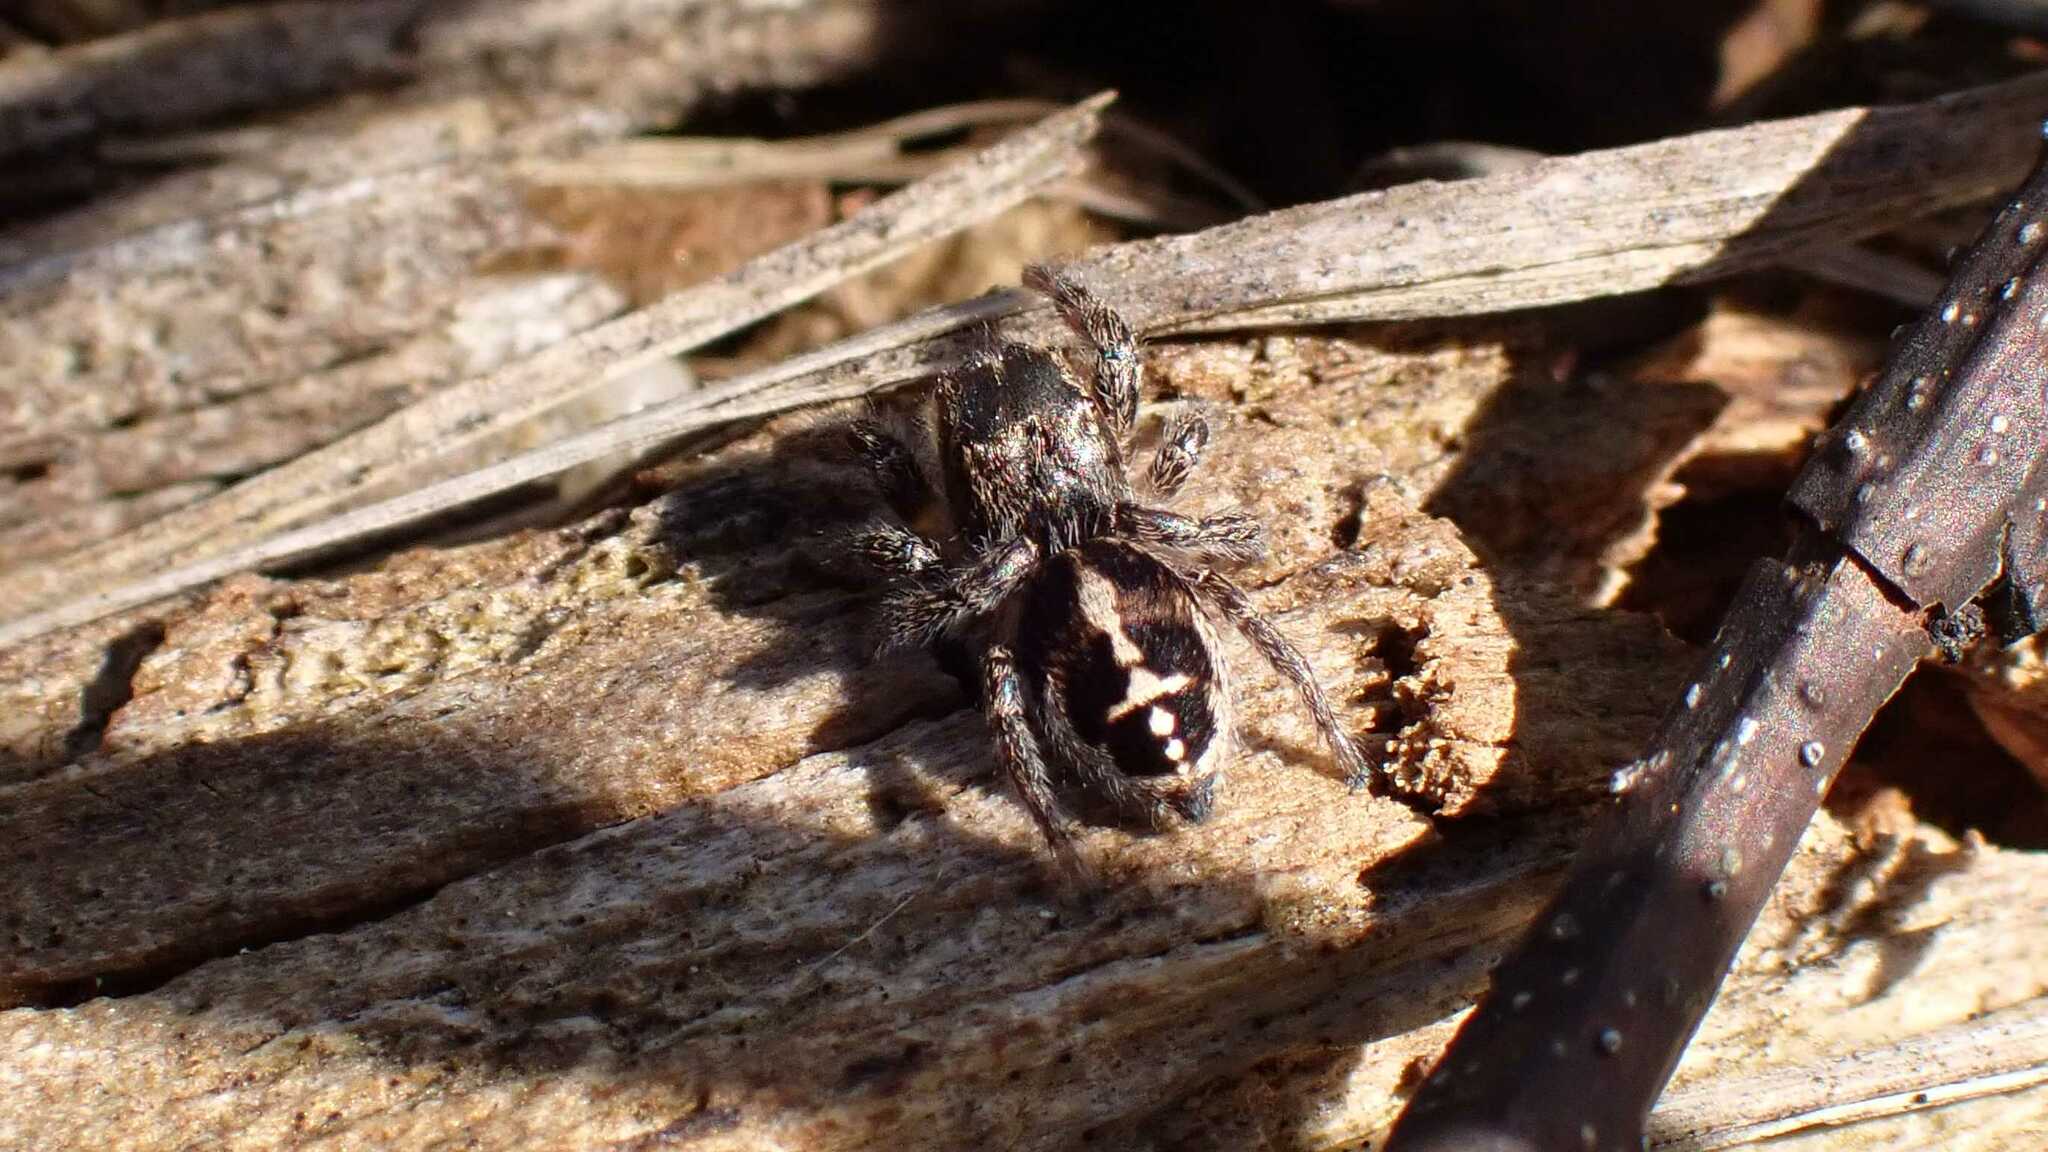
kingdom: Animalia
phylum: Arthropoda
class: Arachnida
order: Araneae
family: Salticidae
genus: Pellenes
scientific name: Pellenes tripunctatus
